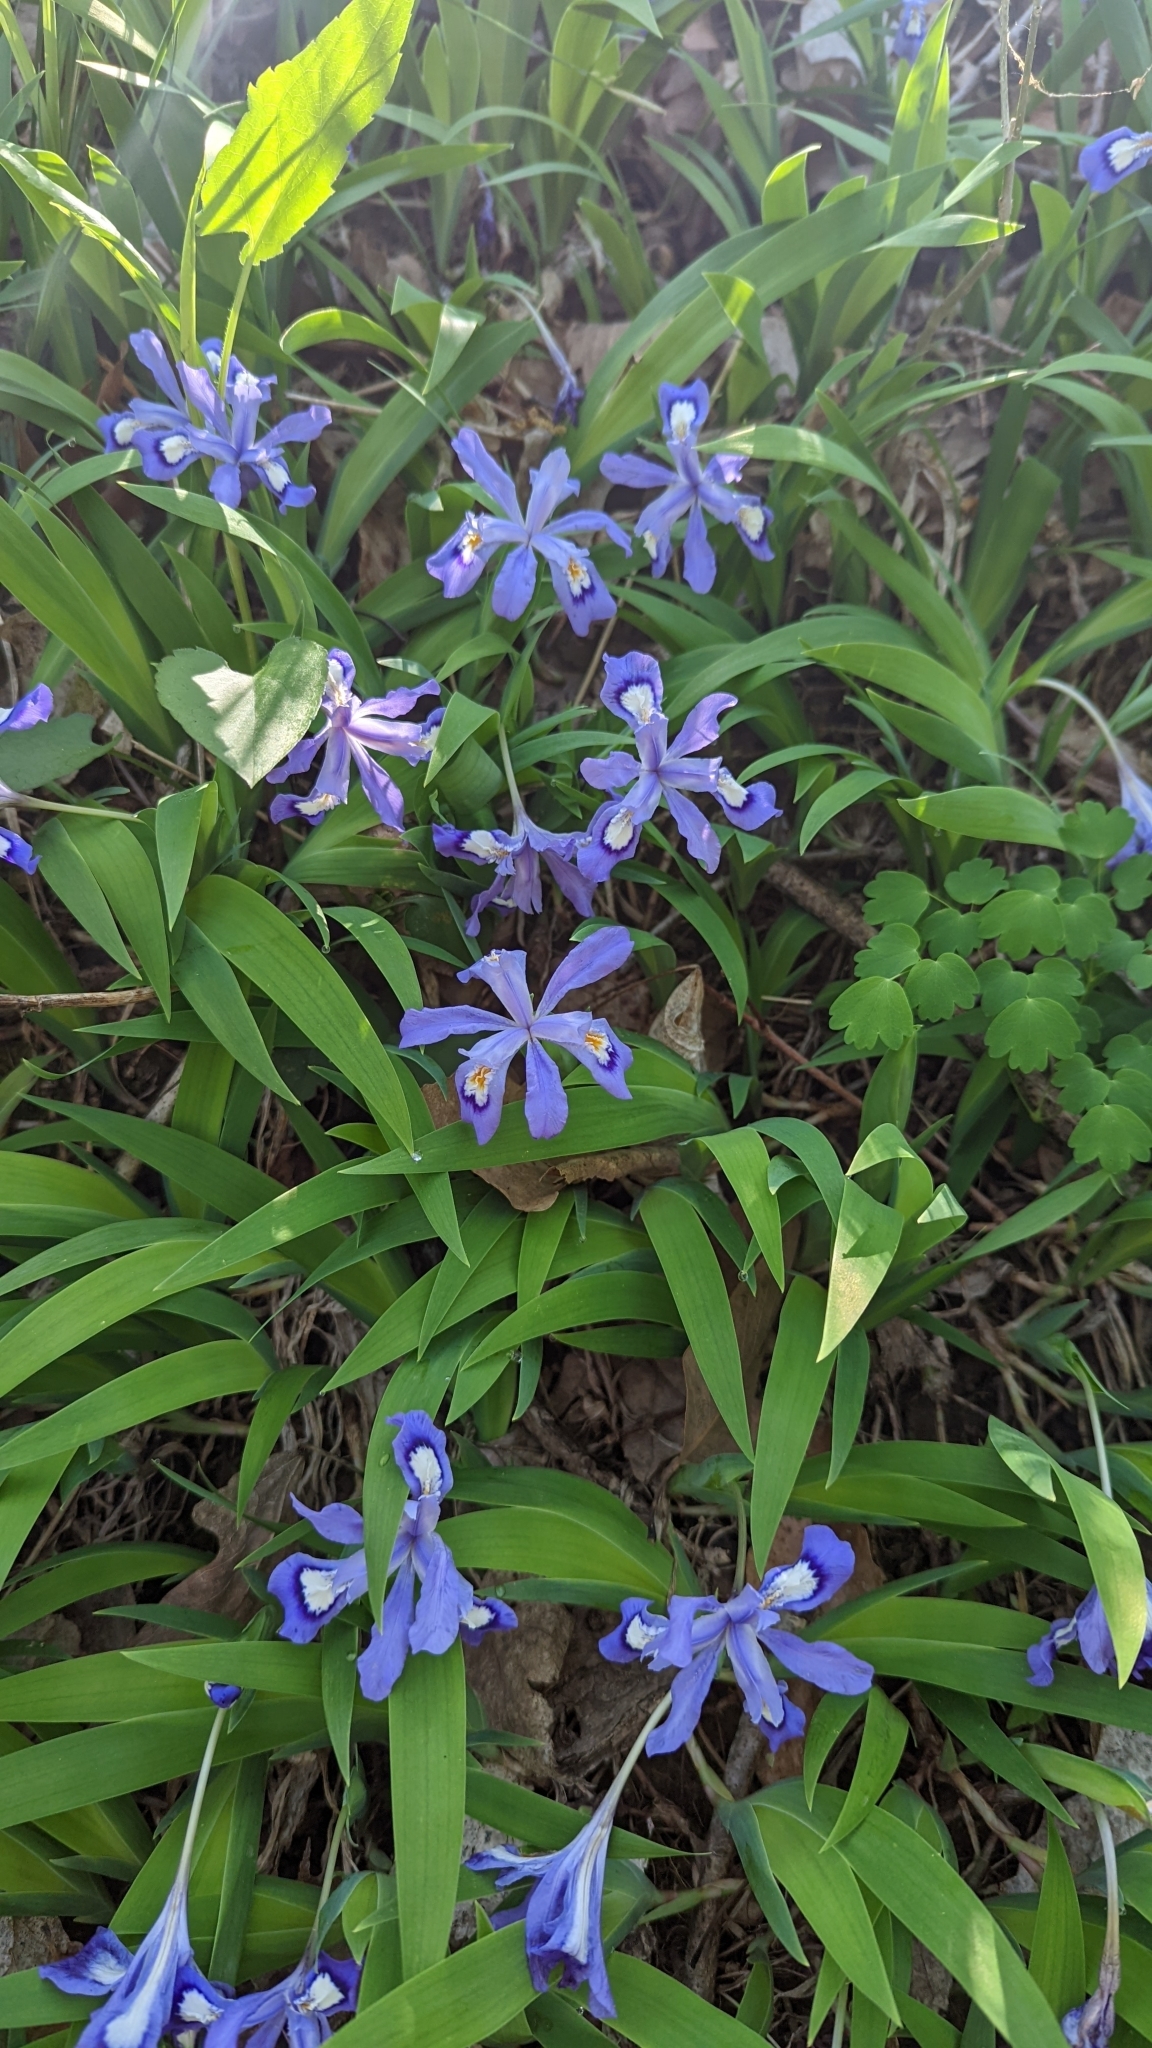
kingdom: Plantae
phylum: Tracheophyta
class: Liliopsida
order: Asparagales
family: Iridaceae
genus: Iris
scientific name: Iris cristata
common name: Crested iris
